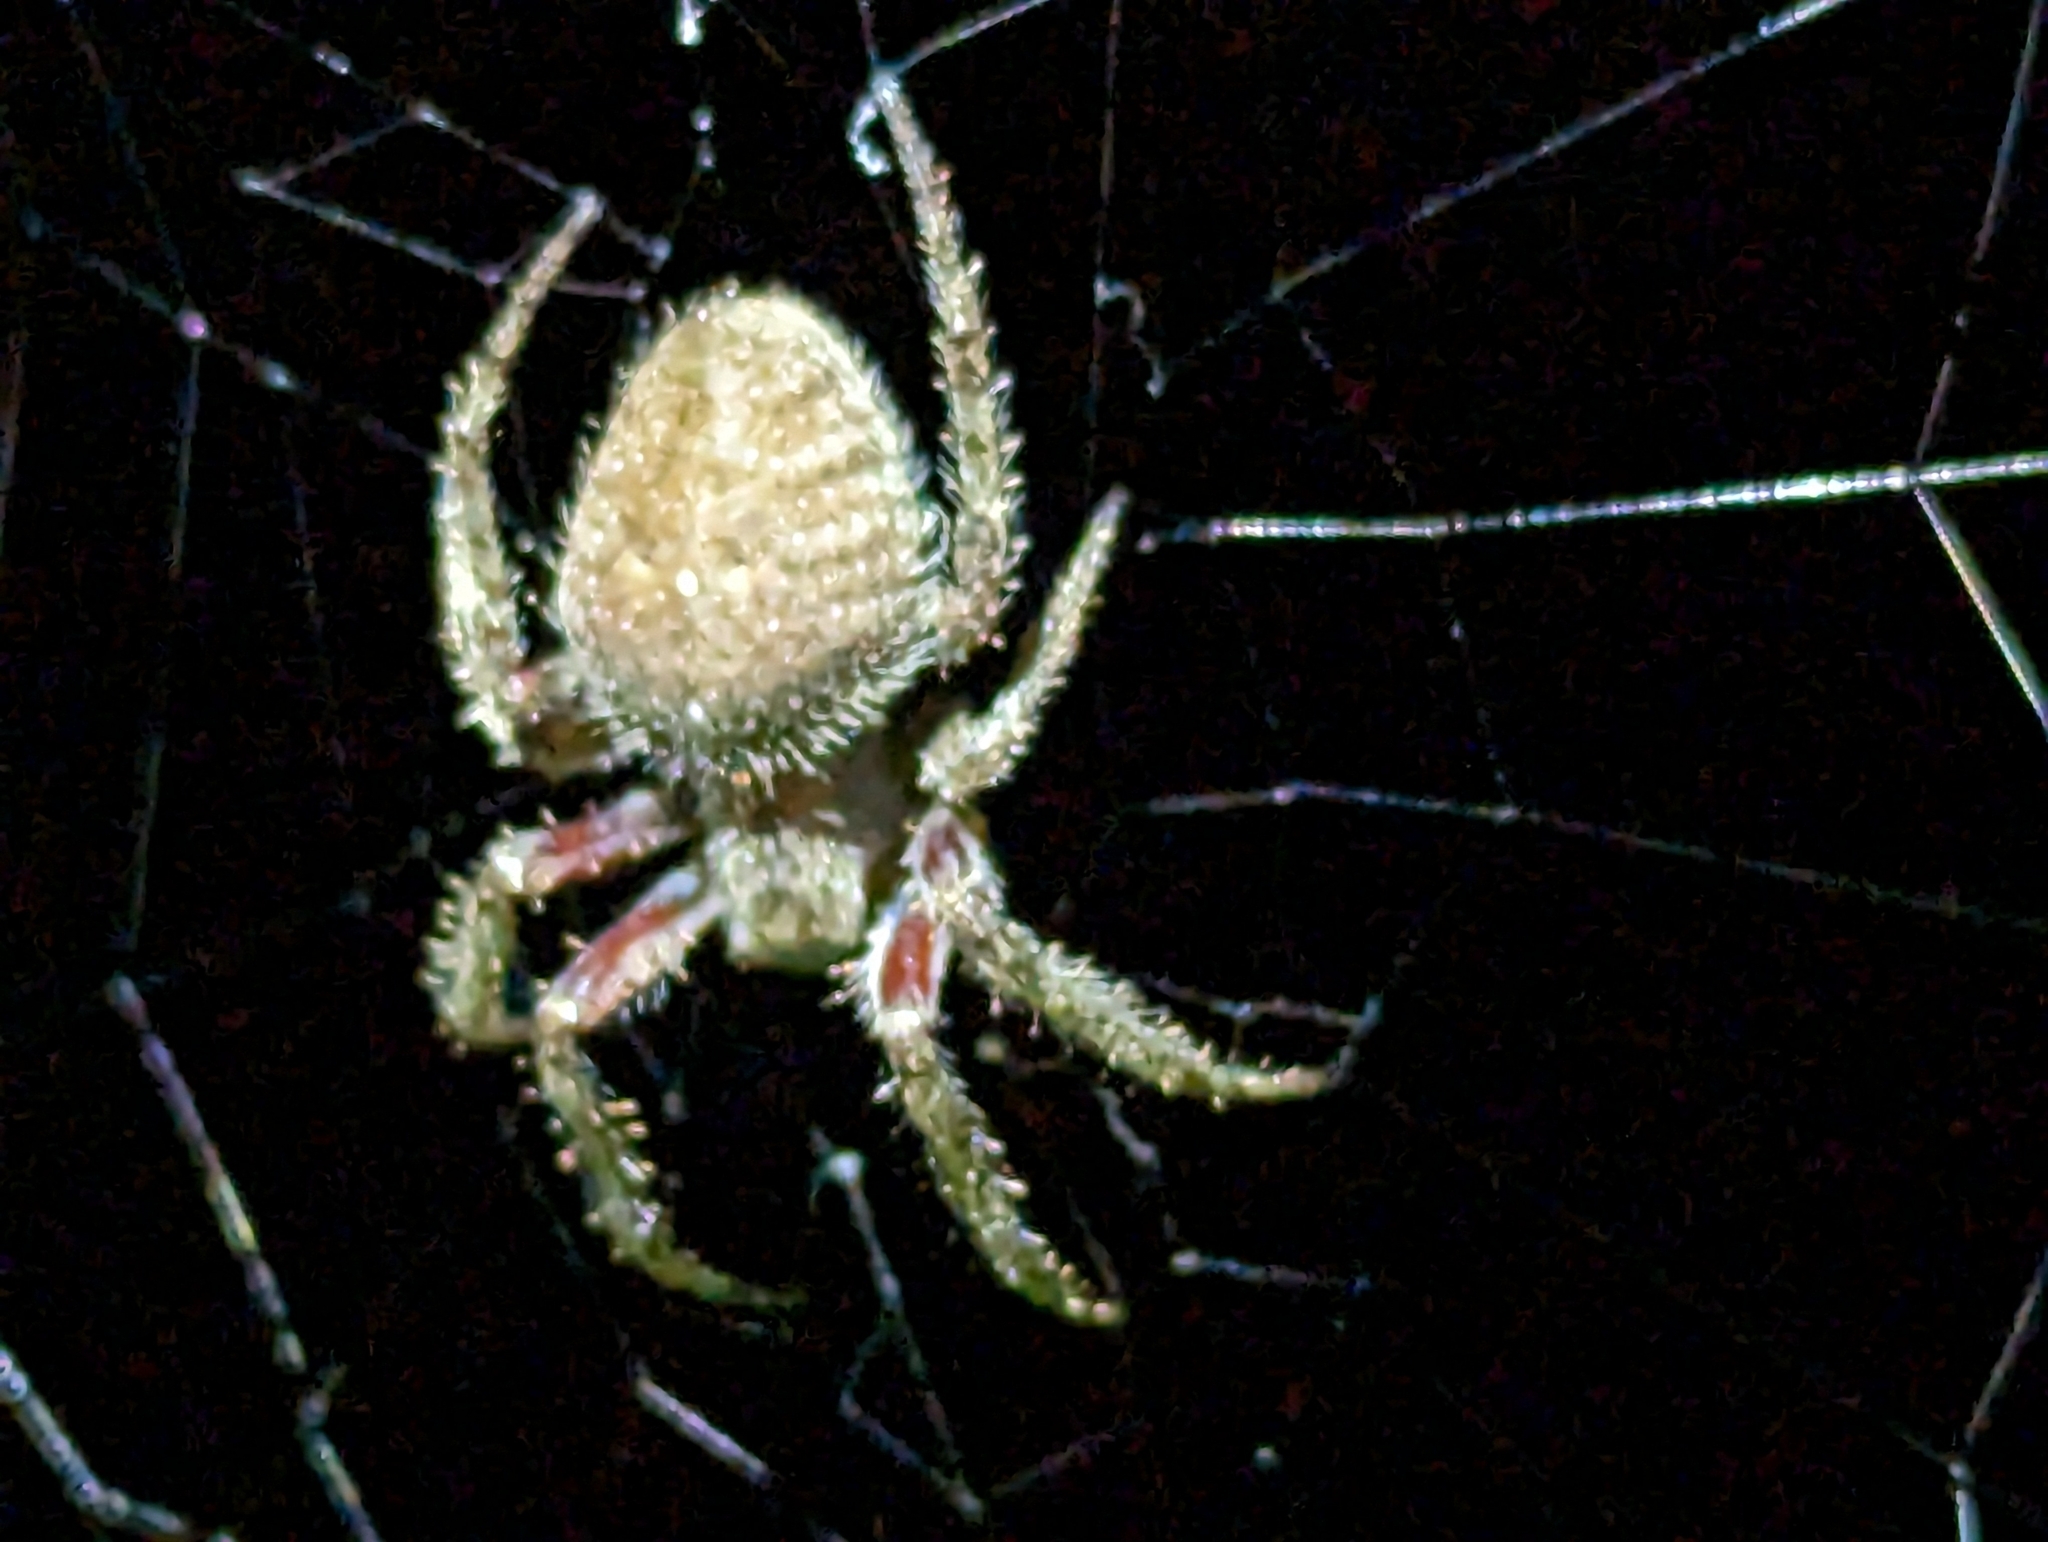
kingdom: Animalia
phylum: Arthropoda
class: Arachnida
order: Araneae
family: Araneidae
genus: Eriophora
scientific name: Eriophora edax
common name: Orb weavers
